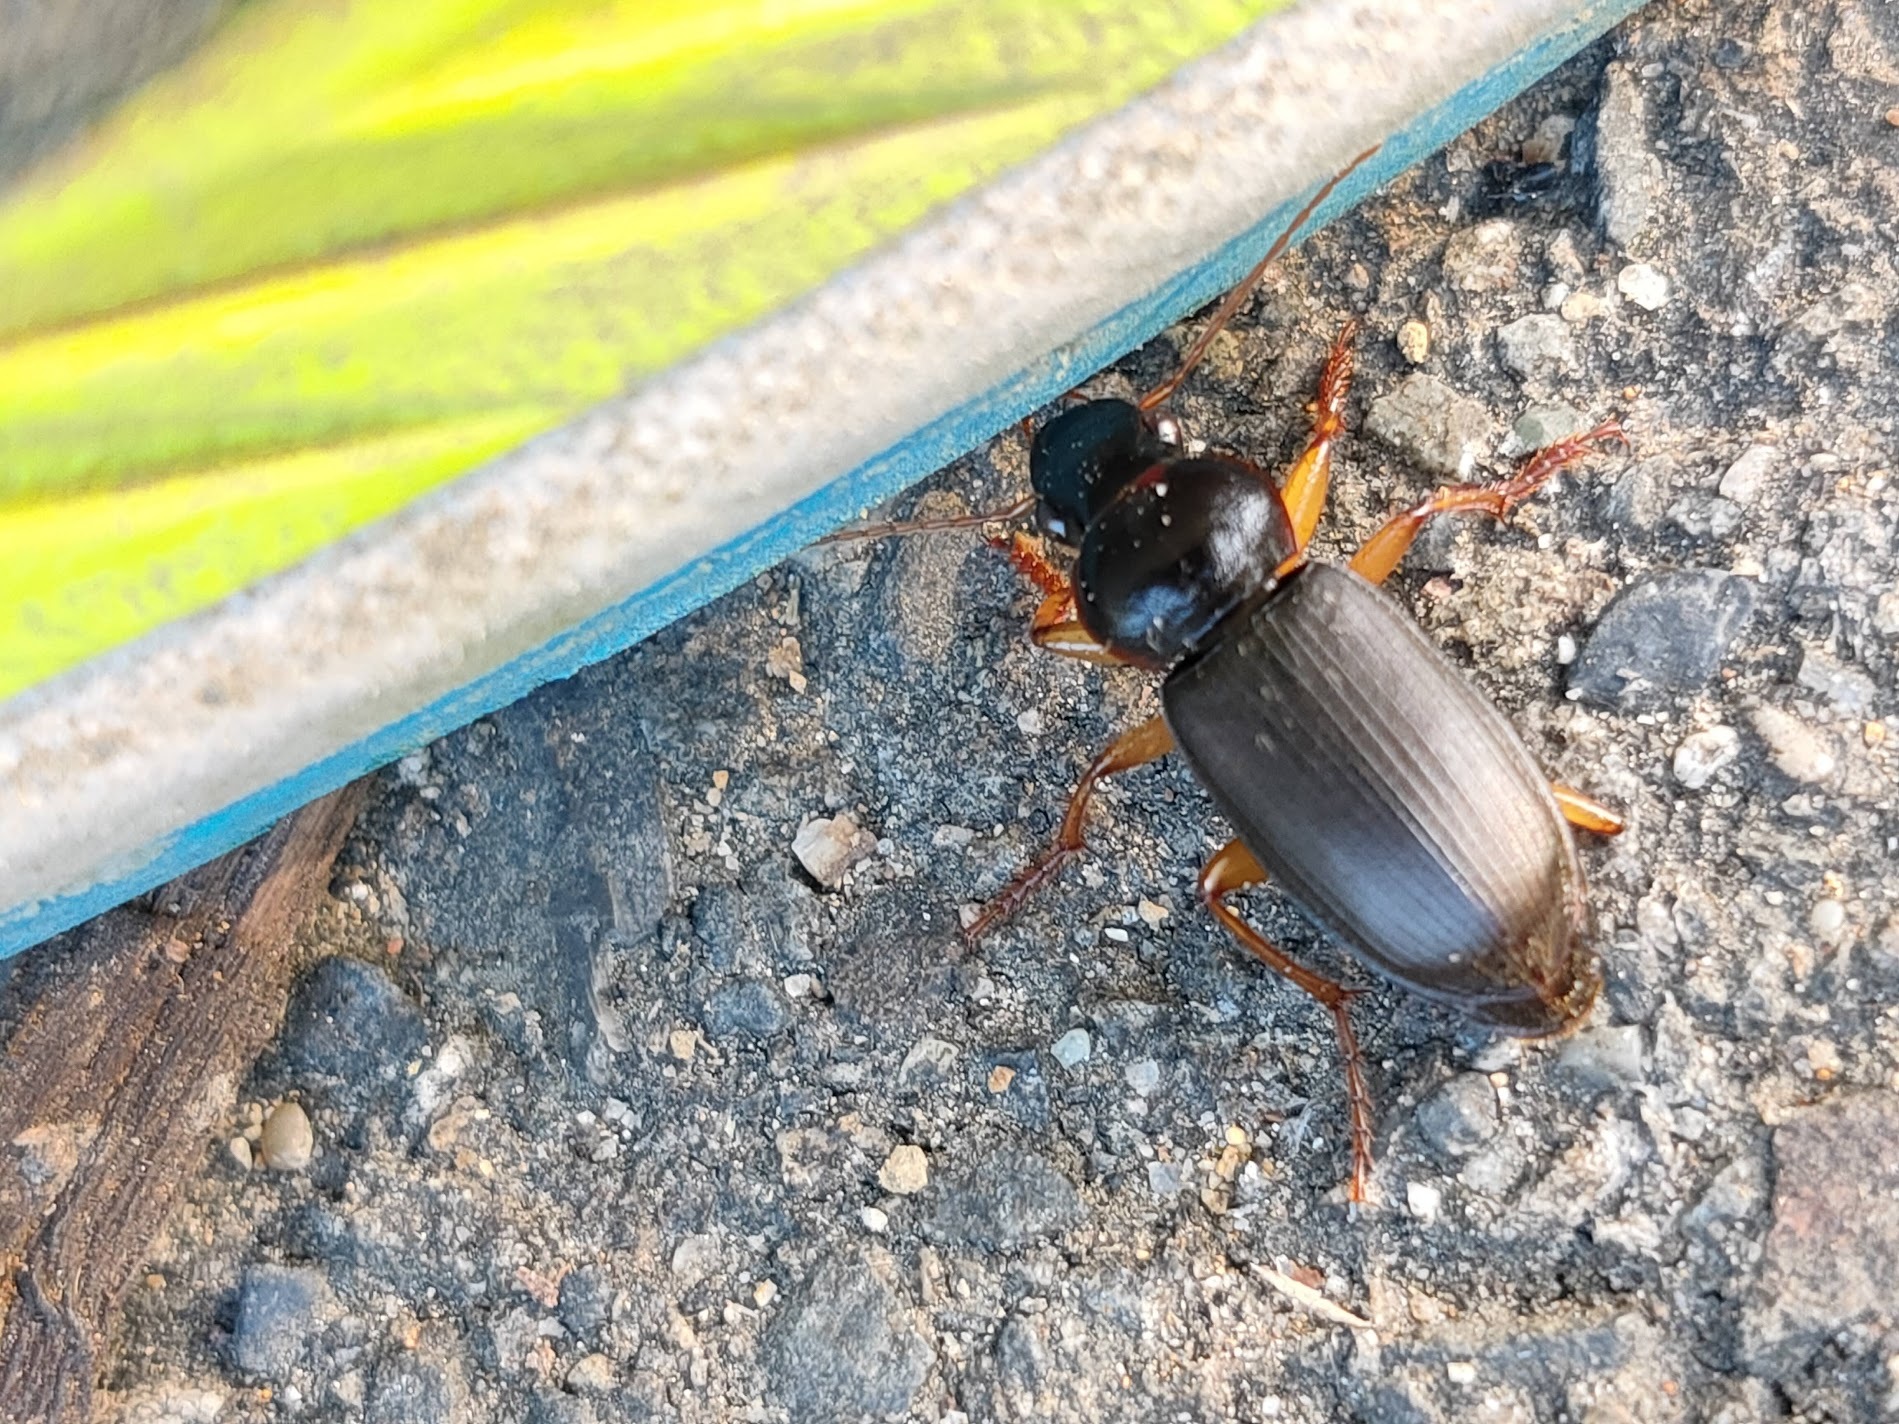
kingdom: Animalia
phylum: Arthropoda
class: Insecta
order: Coleoptera
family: Carabidae
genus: Harpalus
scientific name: Harpalus rufipes
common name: Strawberry harp ground beetle
